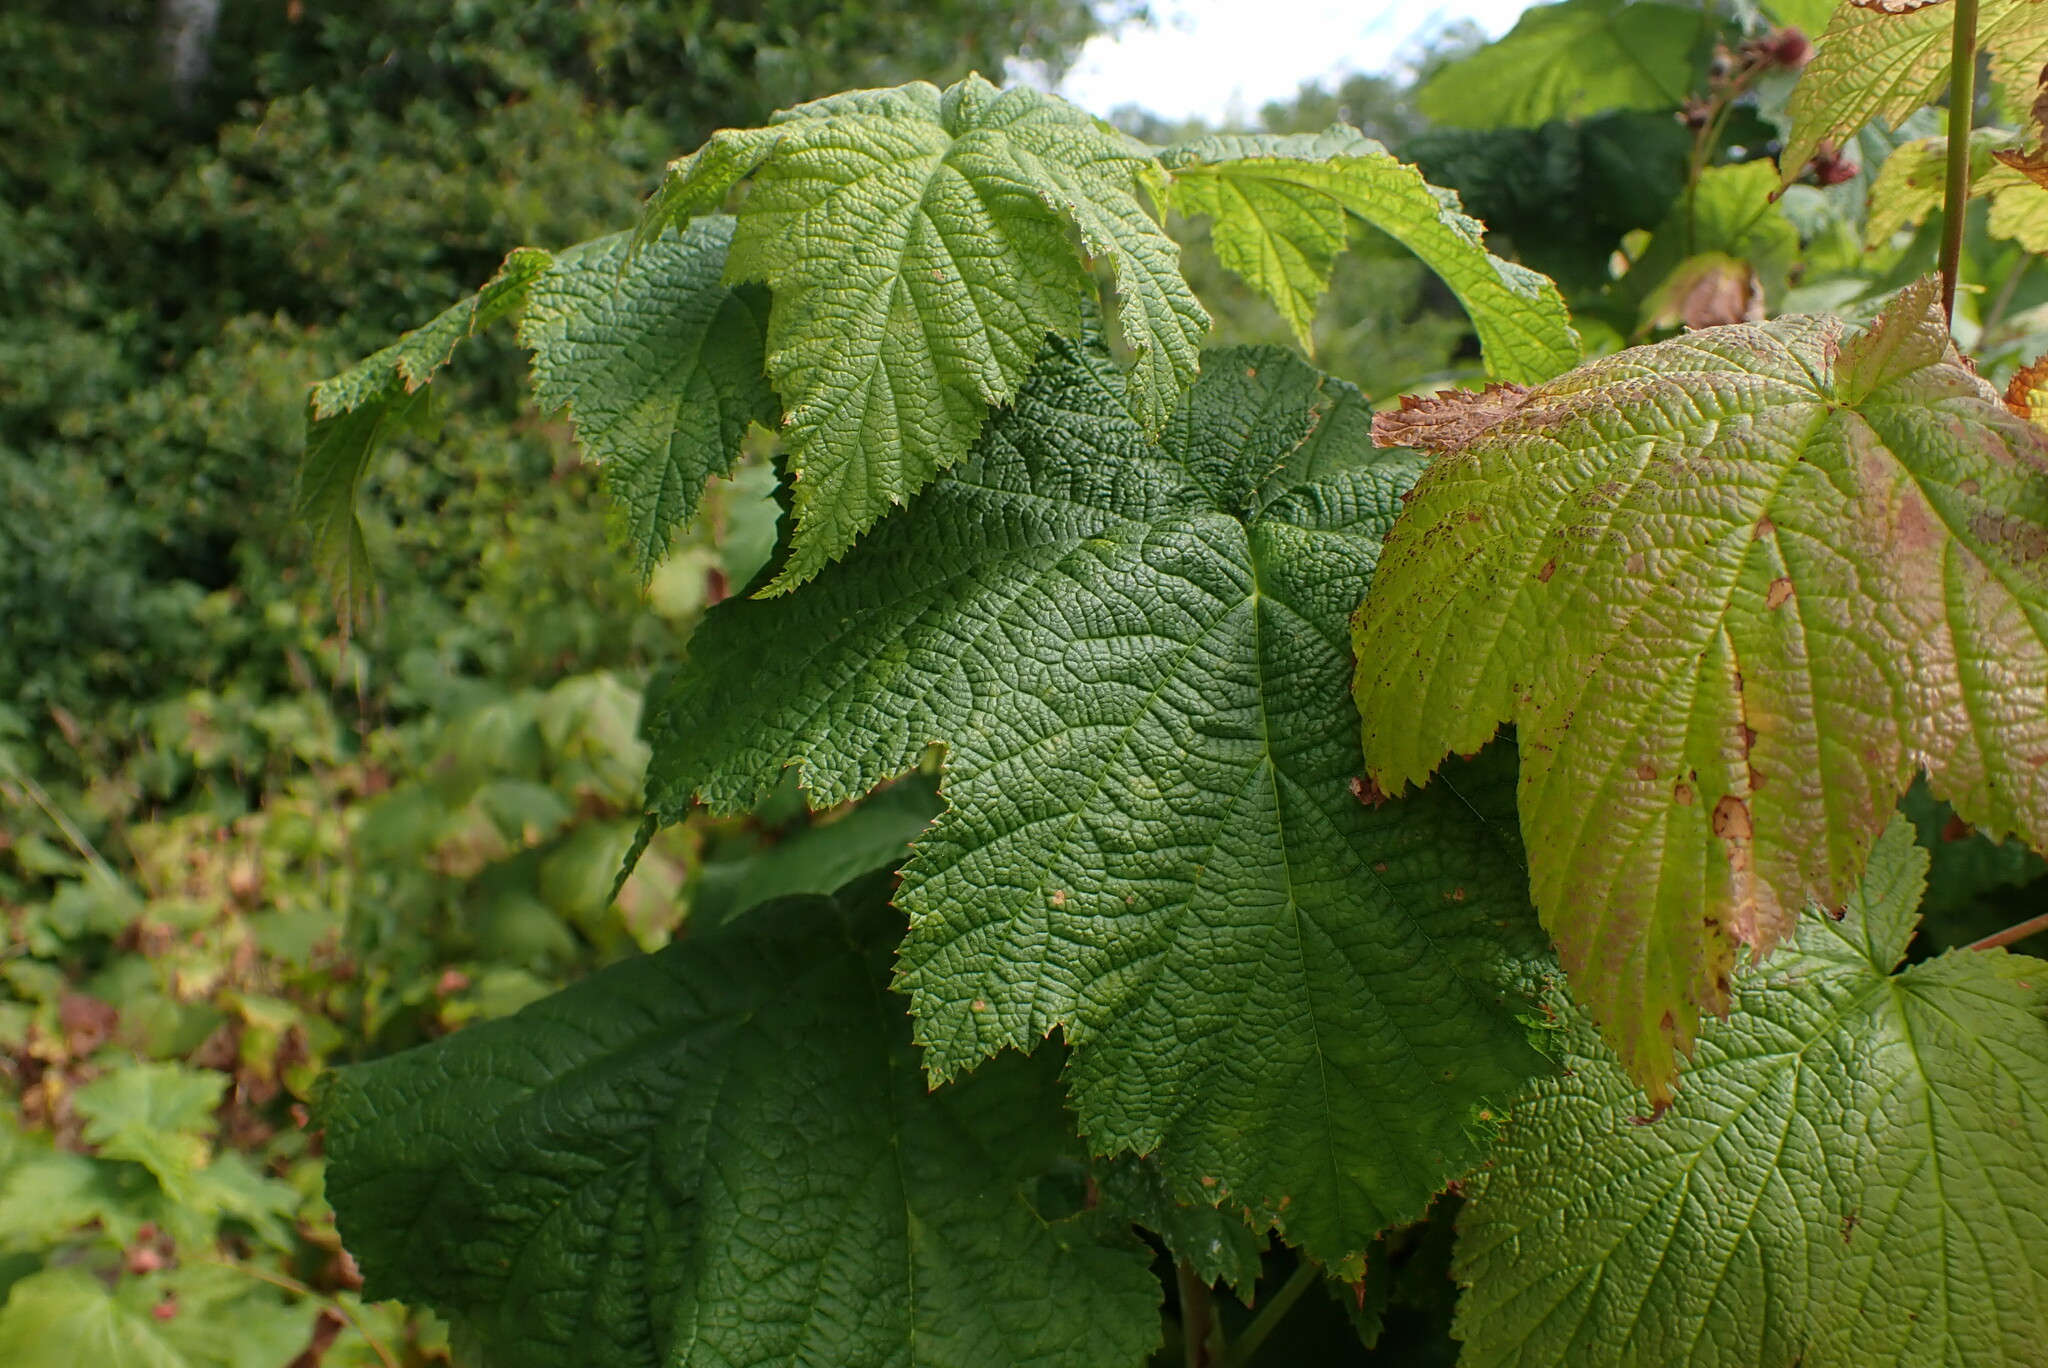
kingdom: Plantae
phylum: Tracheophyta
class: Magnoliopsida
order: Rosales
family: Rosaceae
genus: Rubus
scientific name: Rubus parviflorus
